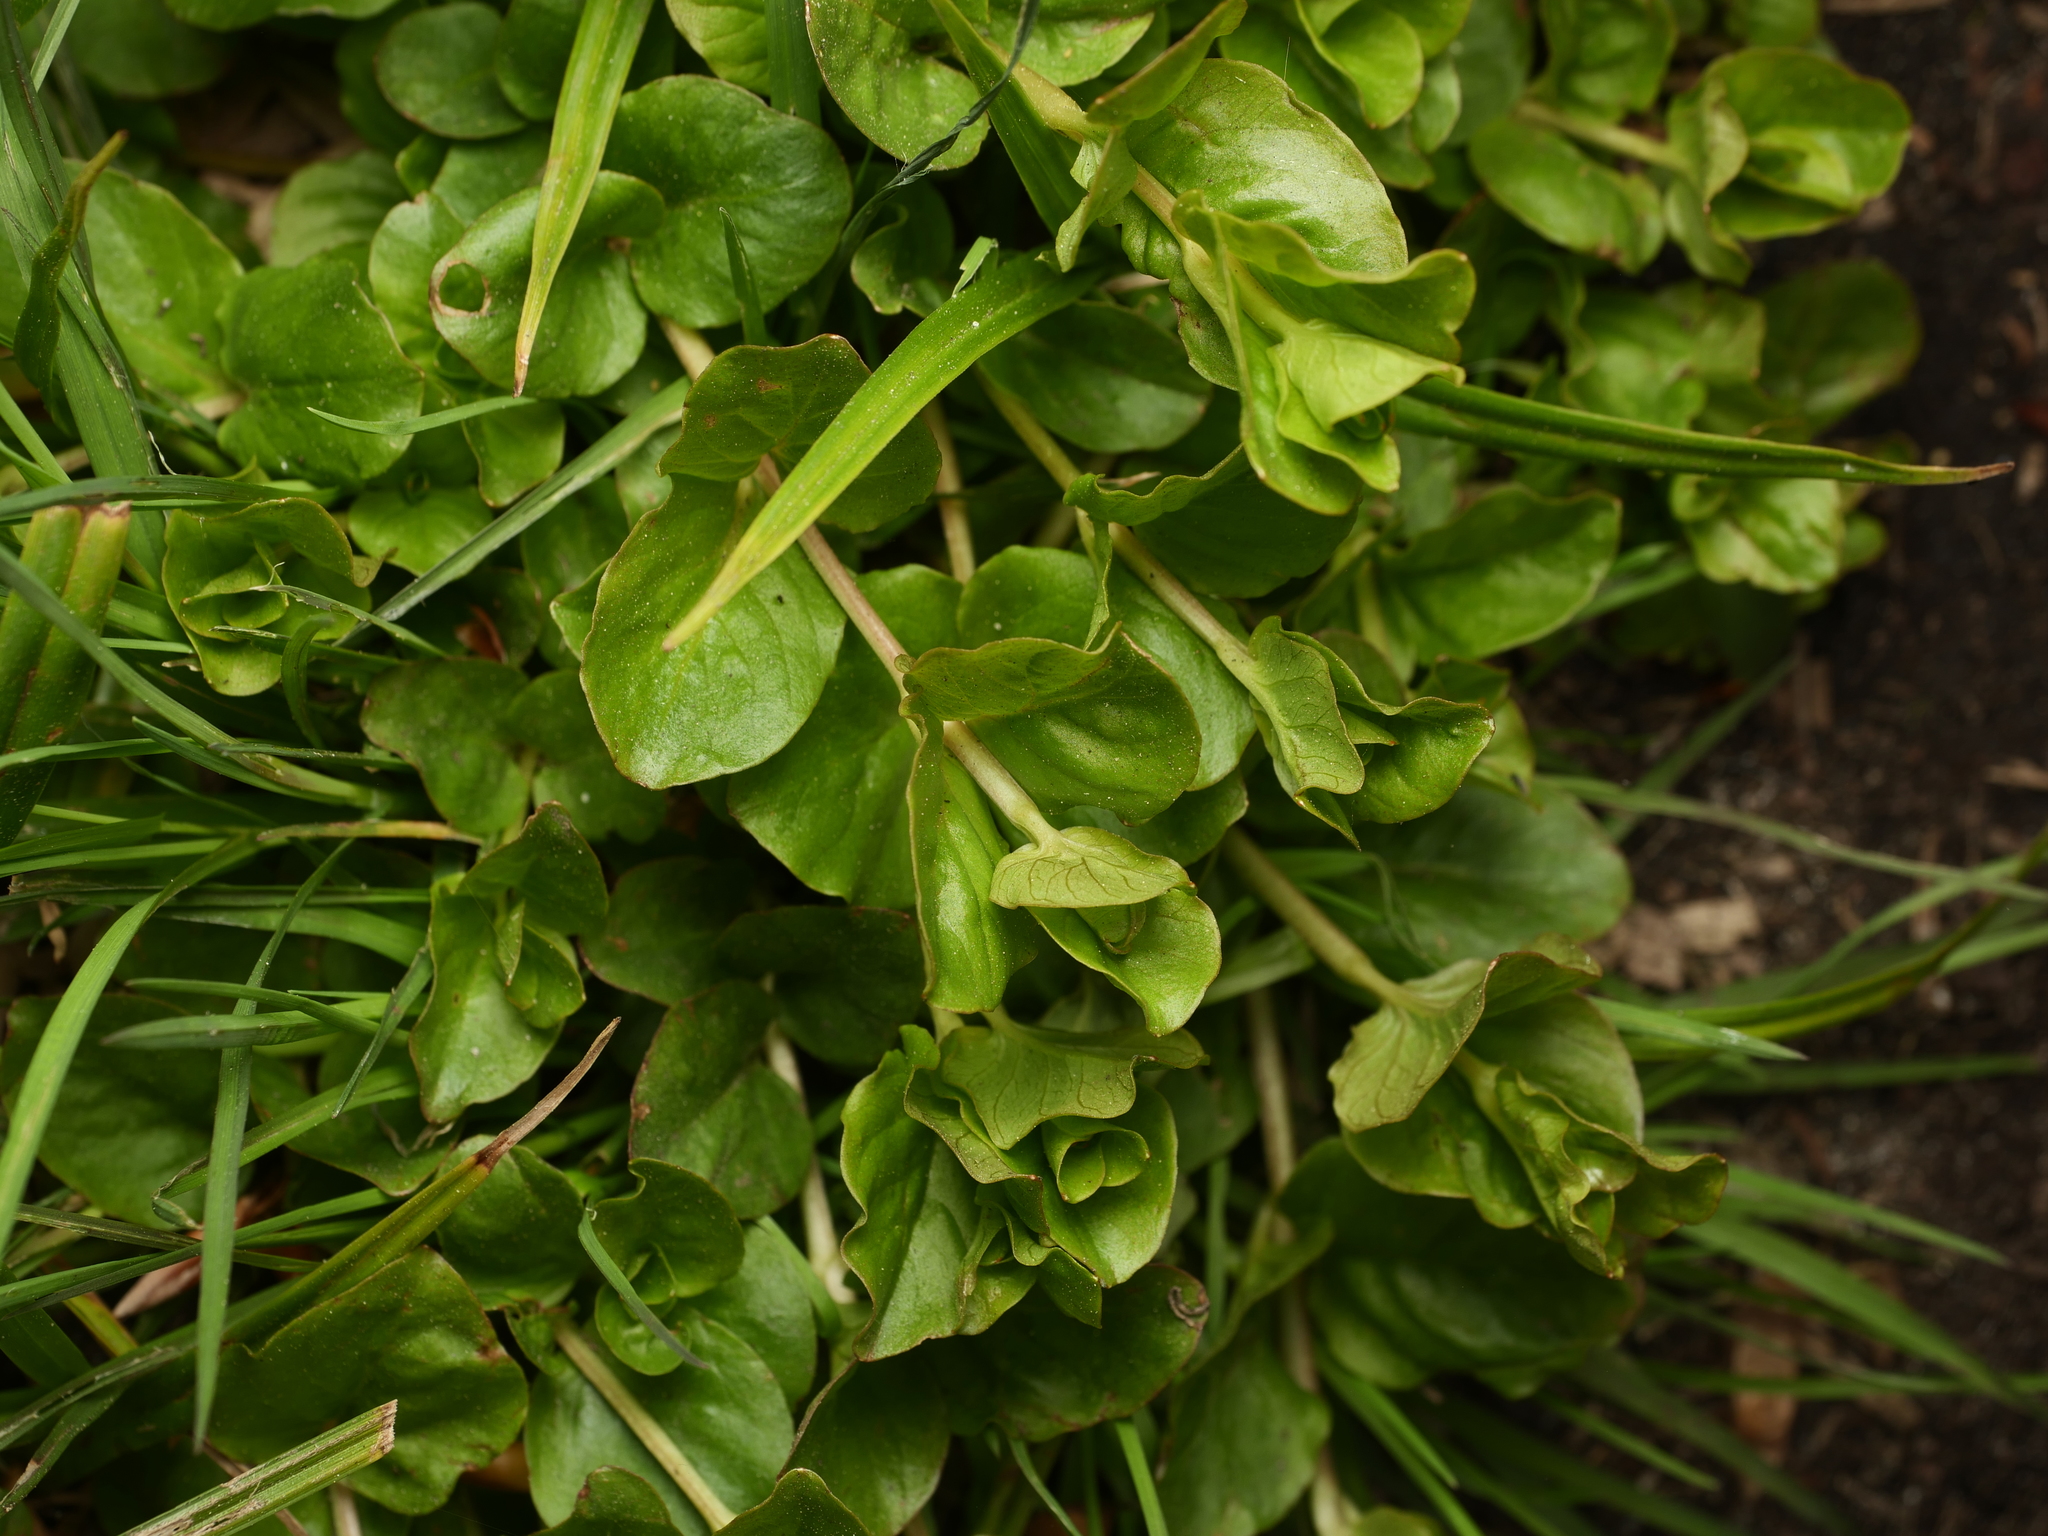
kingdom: Plantae
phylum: Tracheophyta
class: Magnoliopsida
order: Ericales
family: Primulaceae
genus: Lysimachia
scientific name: Lysimachia nummularia
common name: Moneywort
